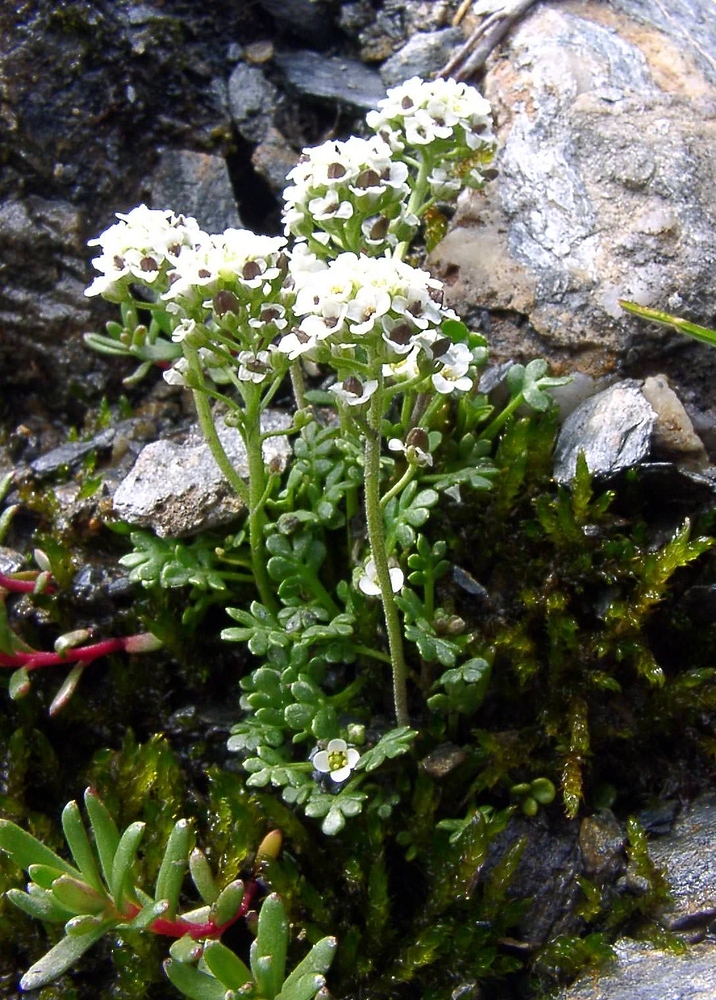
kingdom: Plantae
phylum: Tracheophyta
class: Magnoliopsida
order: Brassicales
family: Brassicaceae
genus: Hornungia
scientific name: Hornungia alpina
